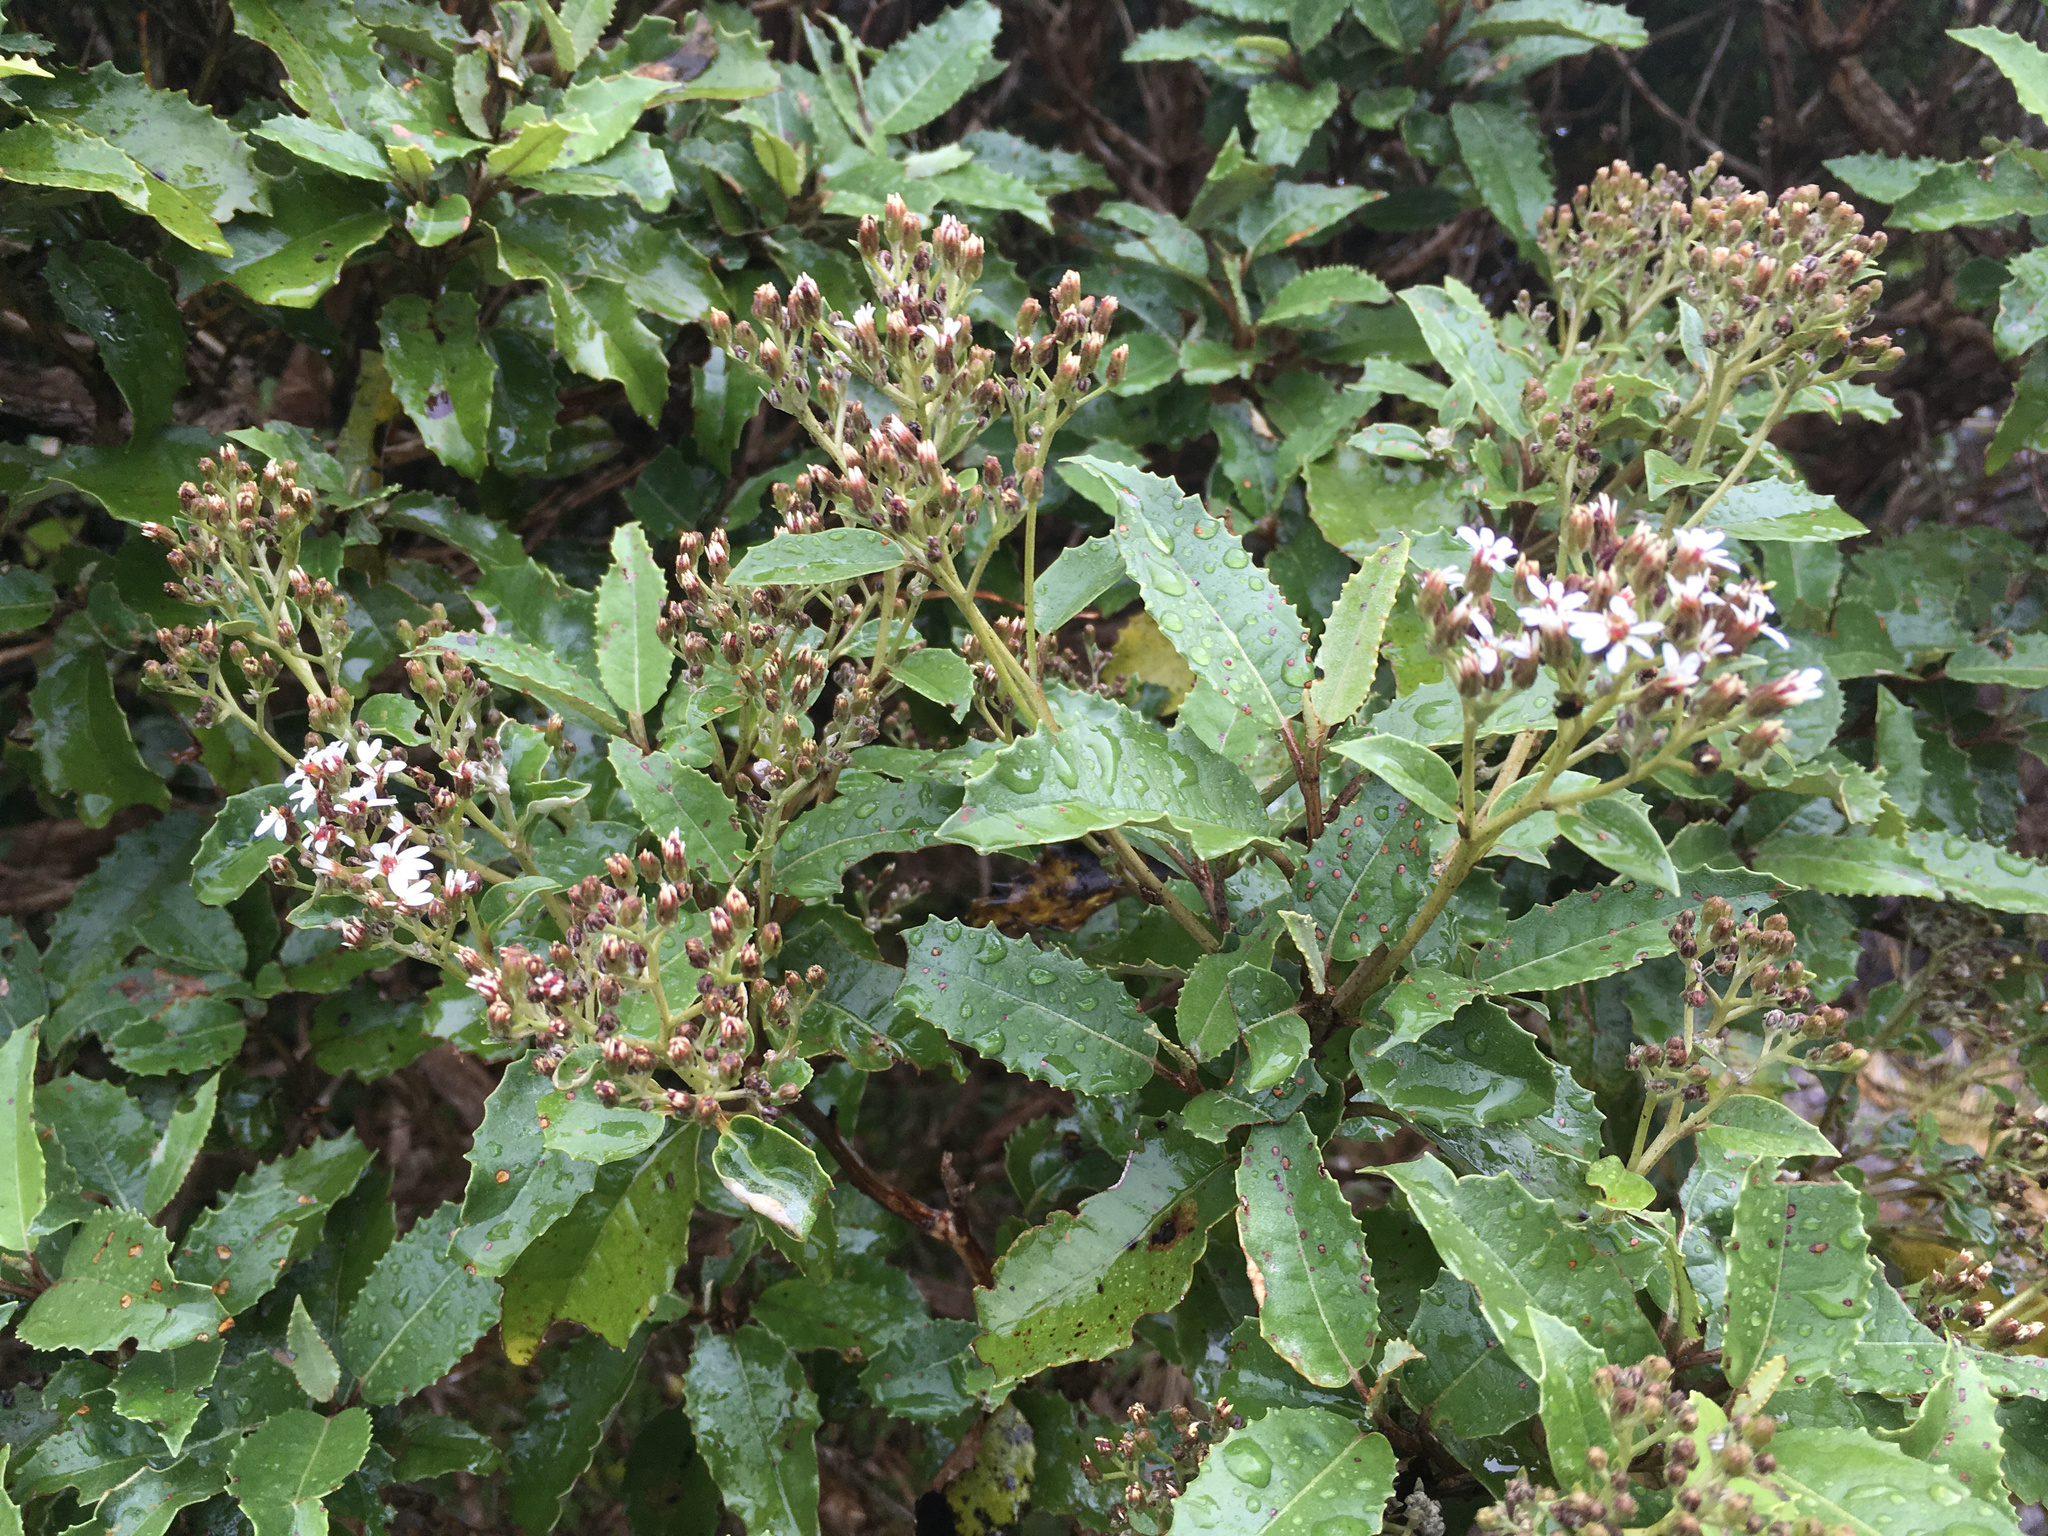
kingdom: Plantae
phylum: Tracheophyta
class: Magnoliopsida
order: Asterales
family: Asteraceae
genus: Olearia
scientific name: Olearia macrodonta
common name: New zealand holly
